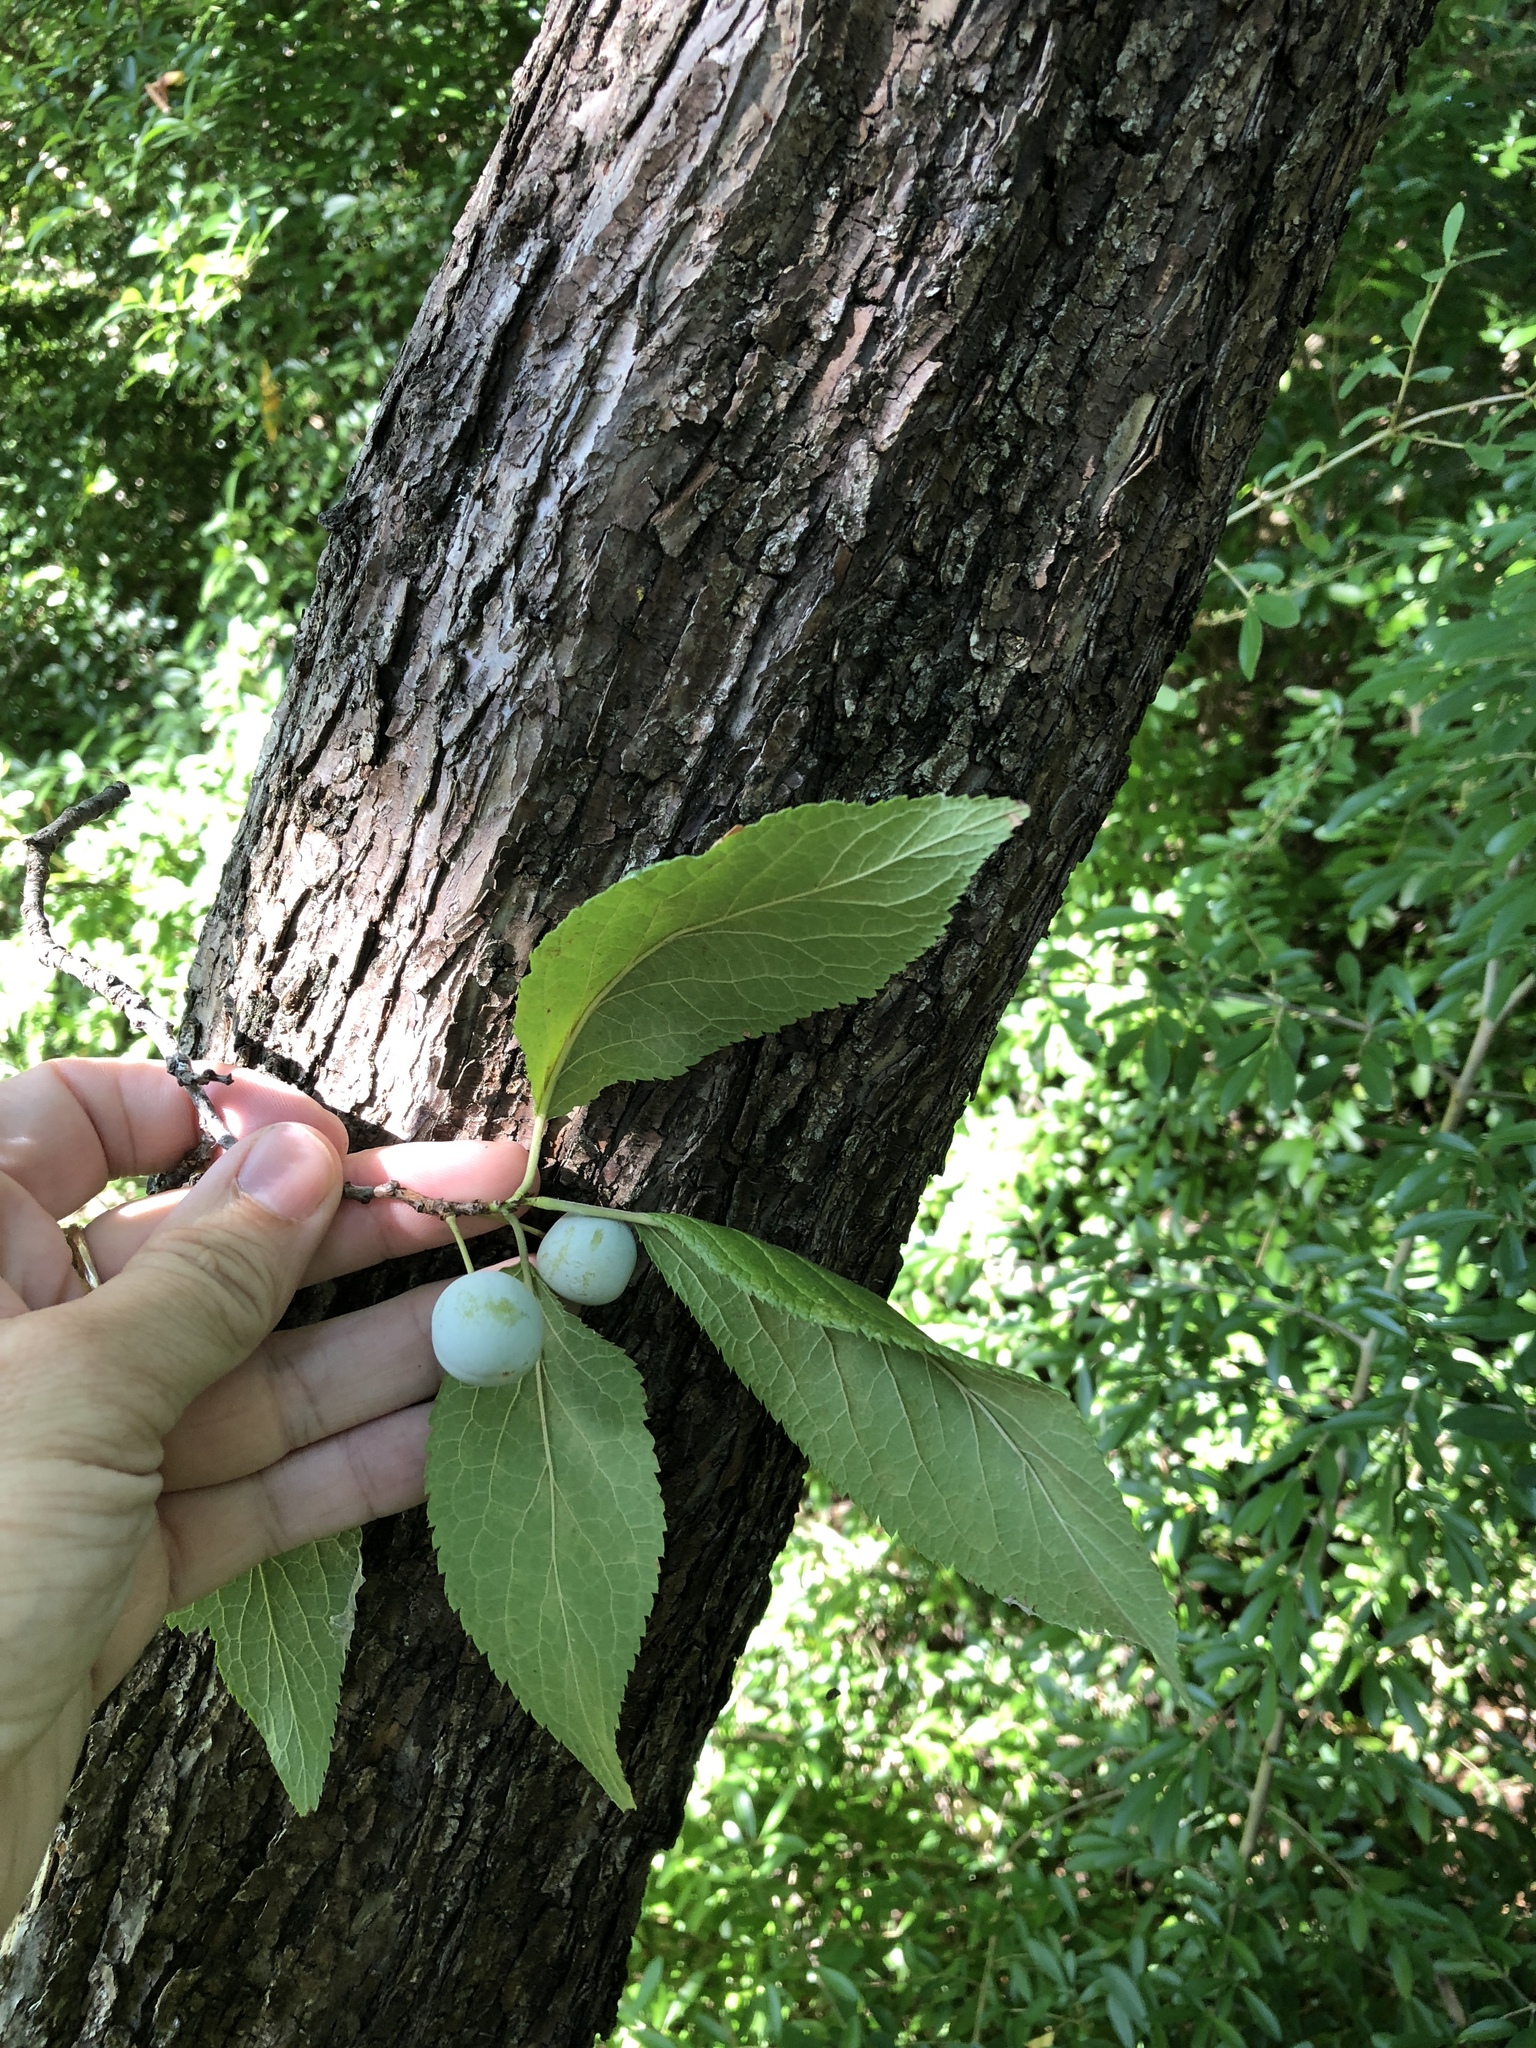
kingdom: Plantae
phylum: Tracheophyta
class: Magnoliopsida
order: Rosales
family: Rosaceae
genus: Prunus
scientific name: Prunus mexicana
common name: Mexican plum
